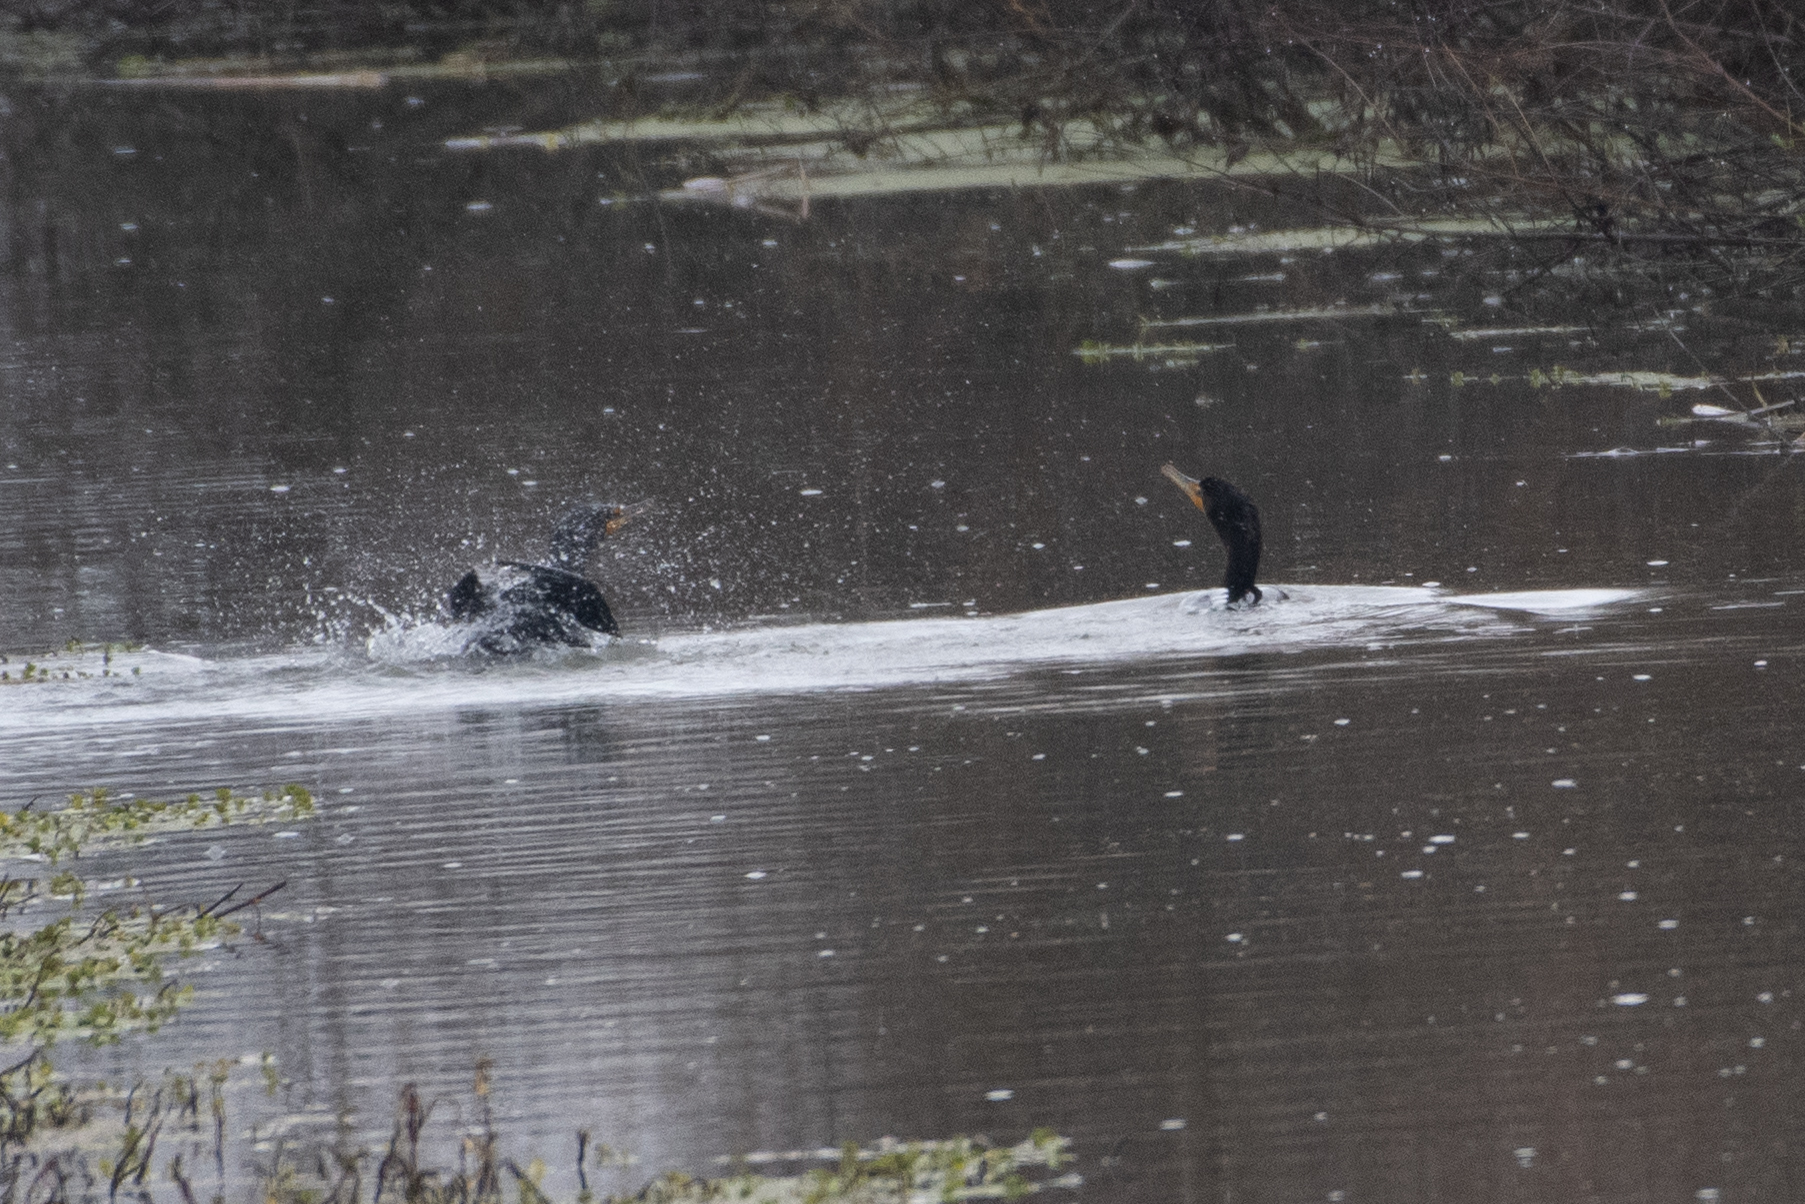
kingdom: Animalia
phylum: Chordata
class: Aves
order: Suliformes
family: Phalacrocoracidae
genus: Phalacrocorax
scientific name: Phalacrocorax auritus
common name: Double-crested cormorant
